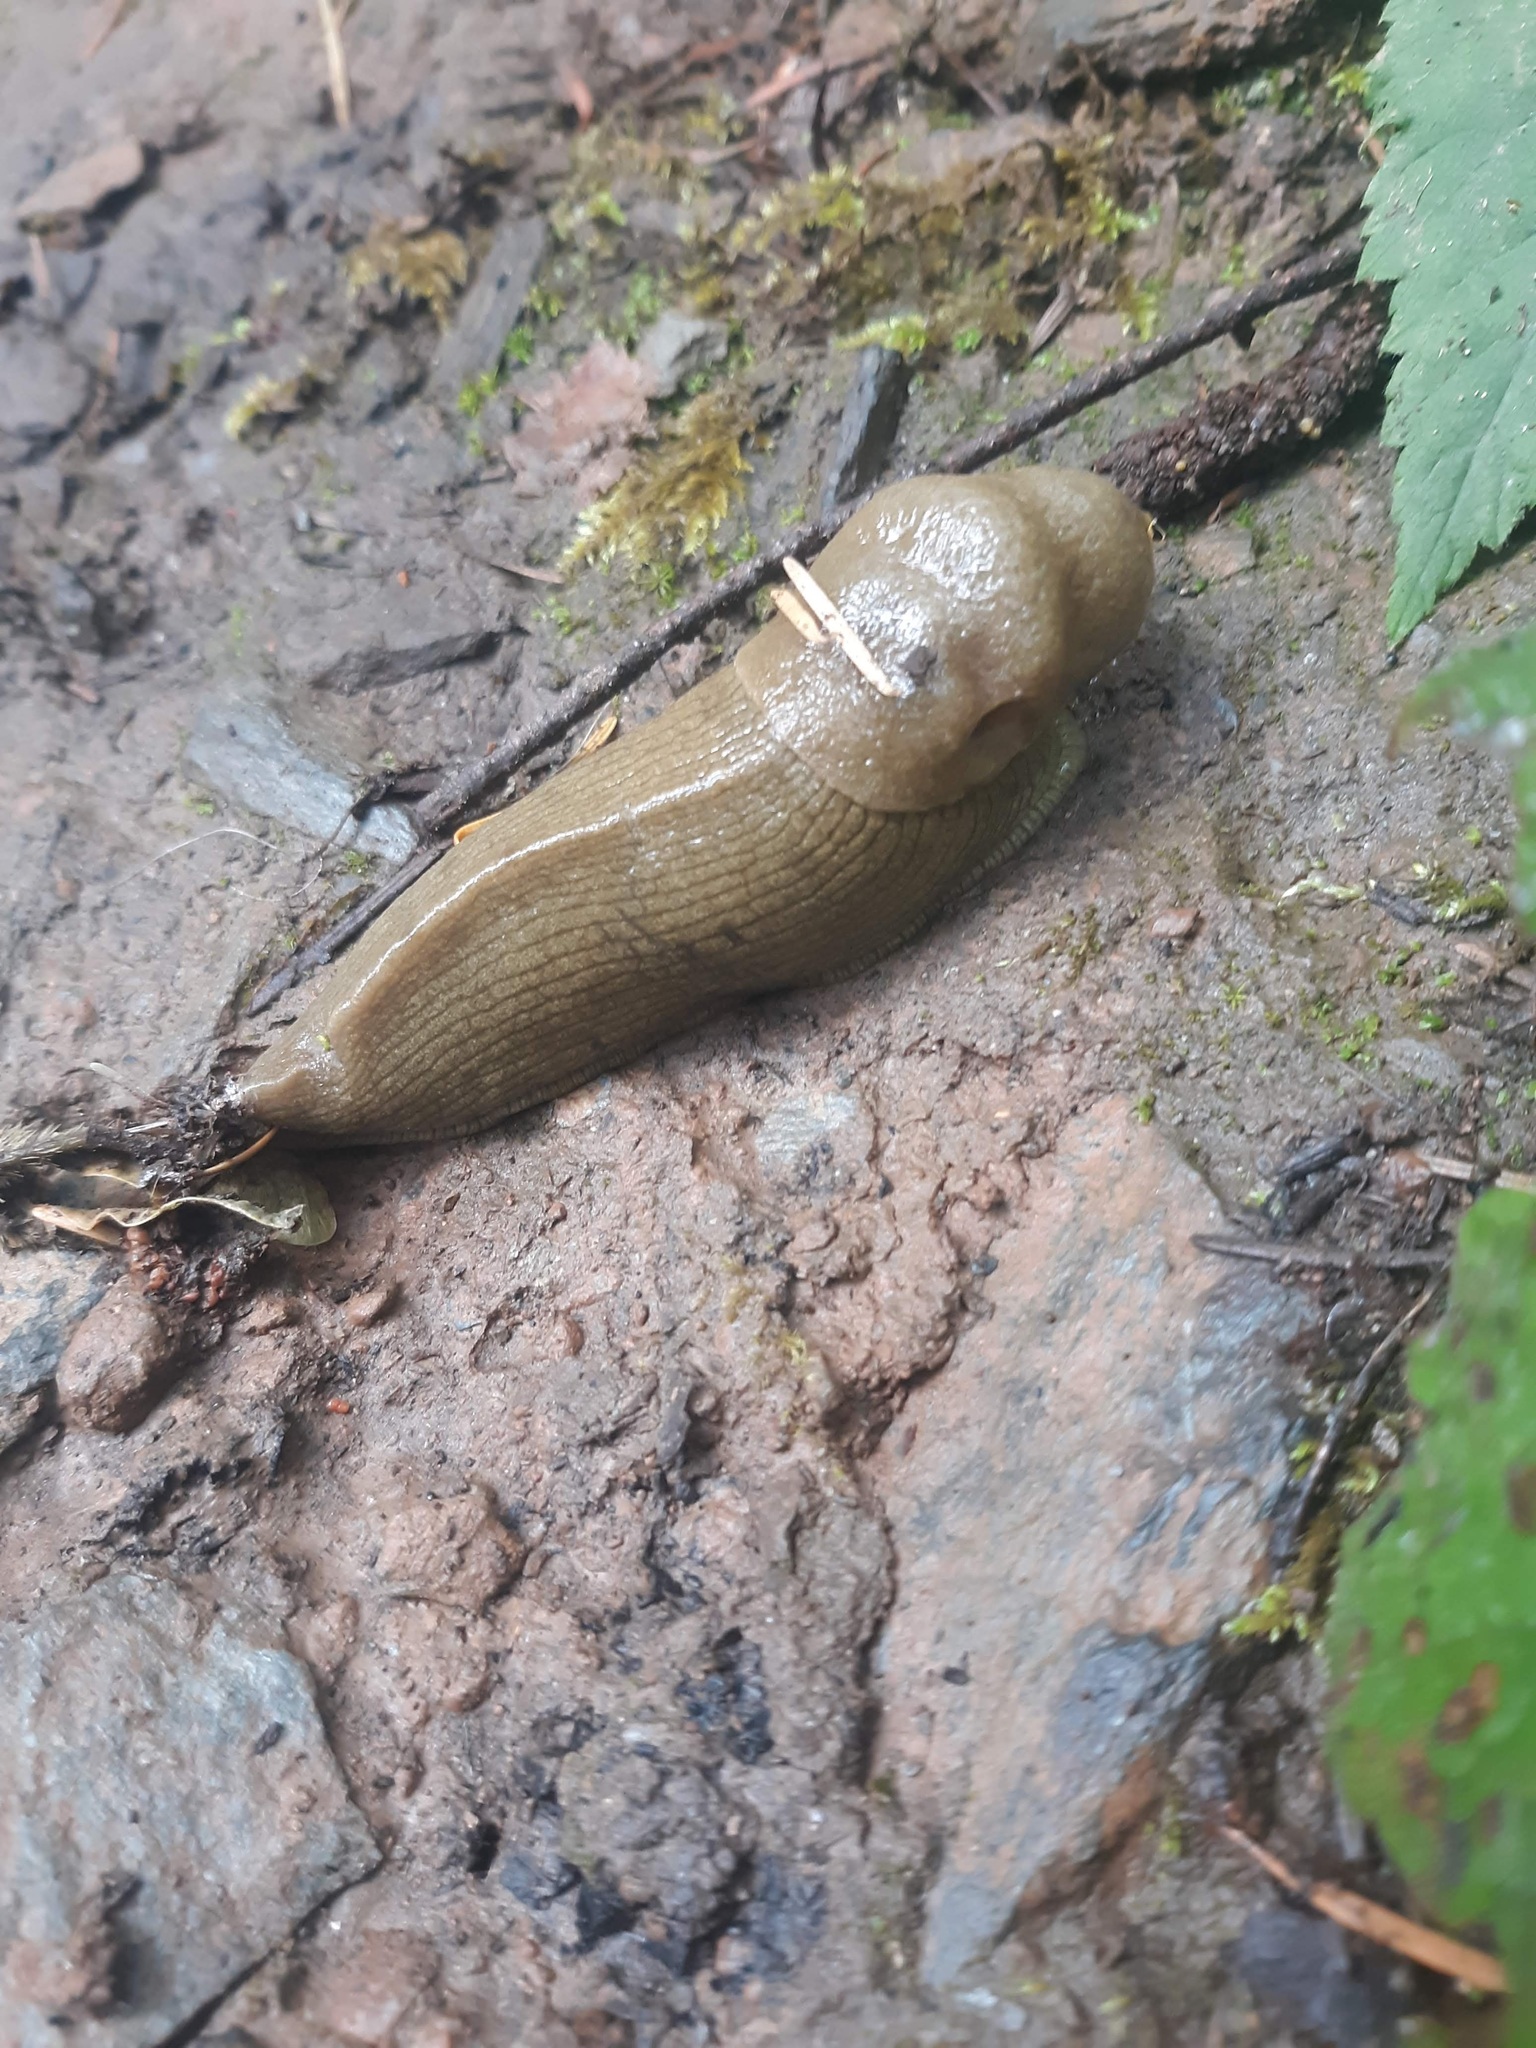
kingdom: Animalia
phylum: Mollusca
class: Gastropoda
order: Stylommatophora
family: Ariolimacidae
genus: Ariolimax
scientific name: Ariolimax columbianus
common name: Pacific banana slug
